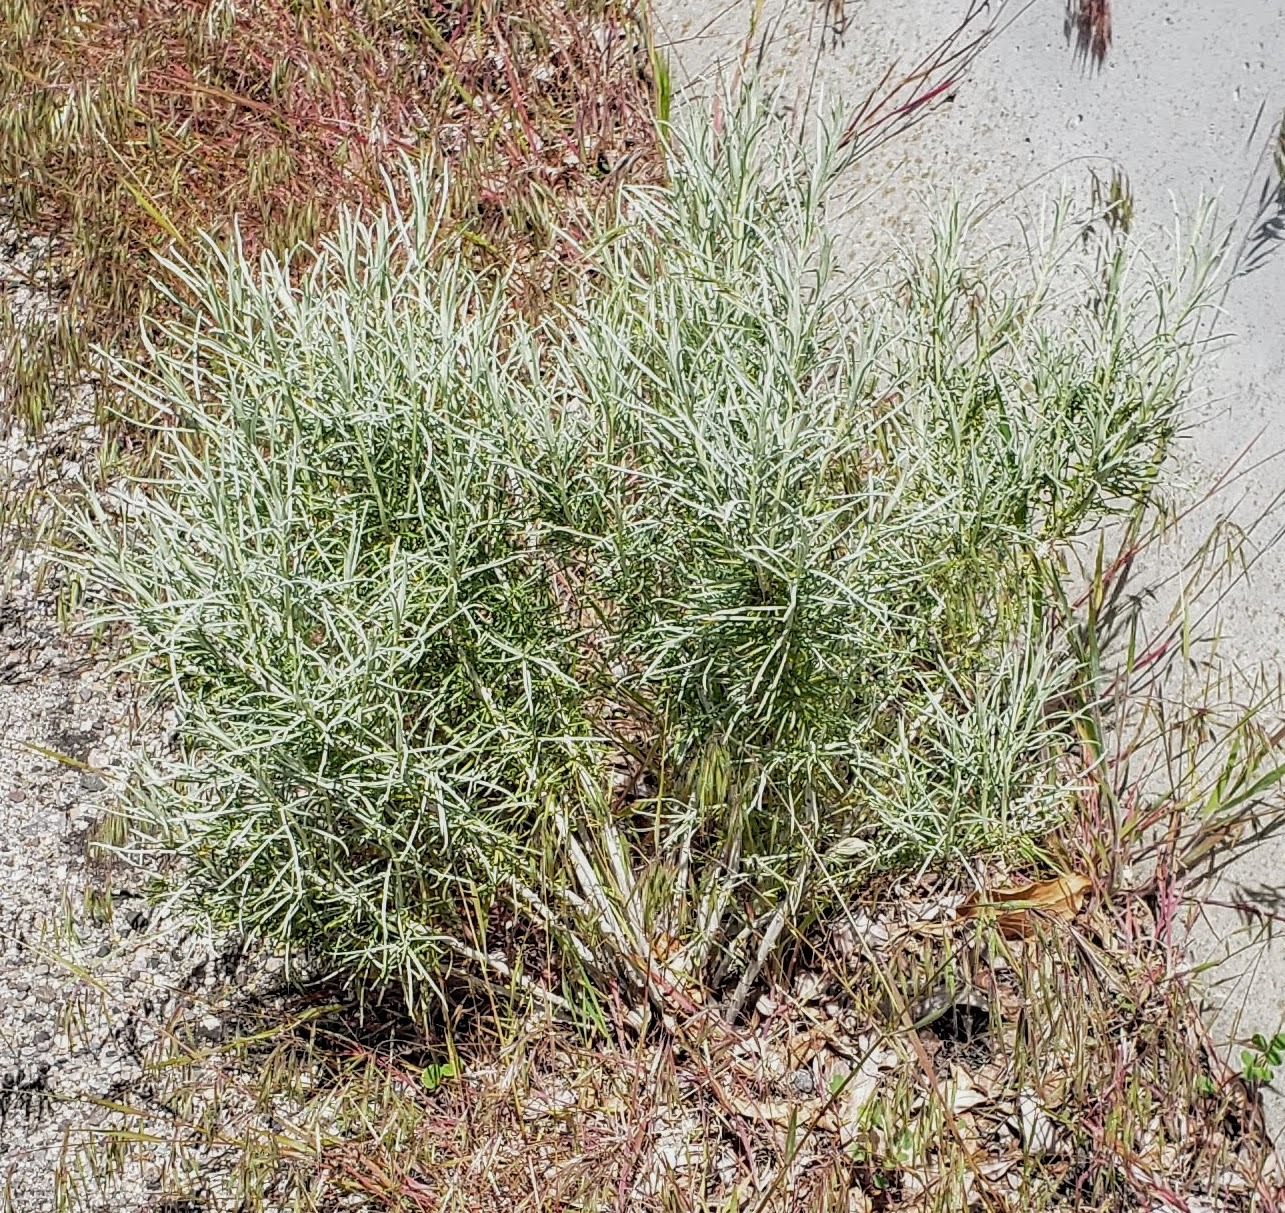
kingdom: Plantae
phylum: Tracheophyta
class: Magnoliopsida
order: Asterales
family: Asteraceae
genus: Ericameria
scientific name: Ericameria nauseosa
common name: Rubber rabbitbrush
